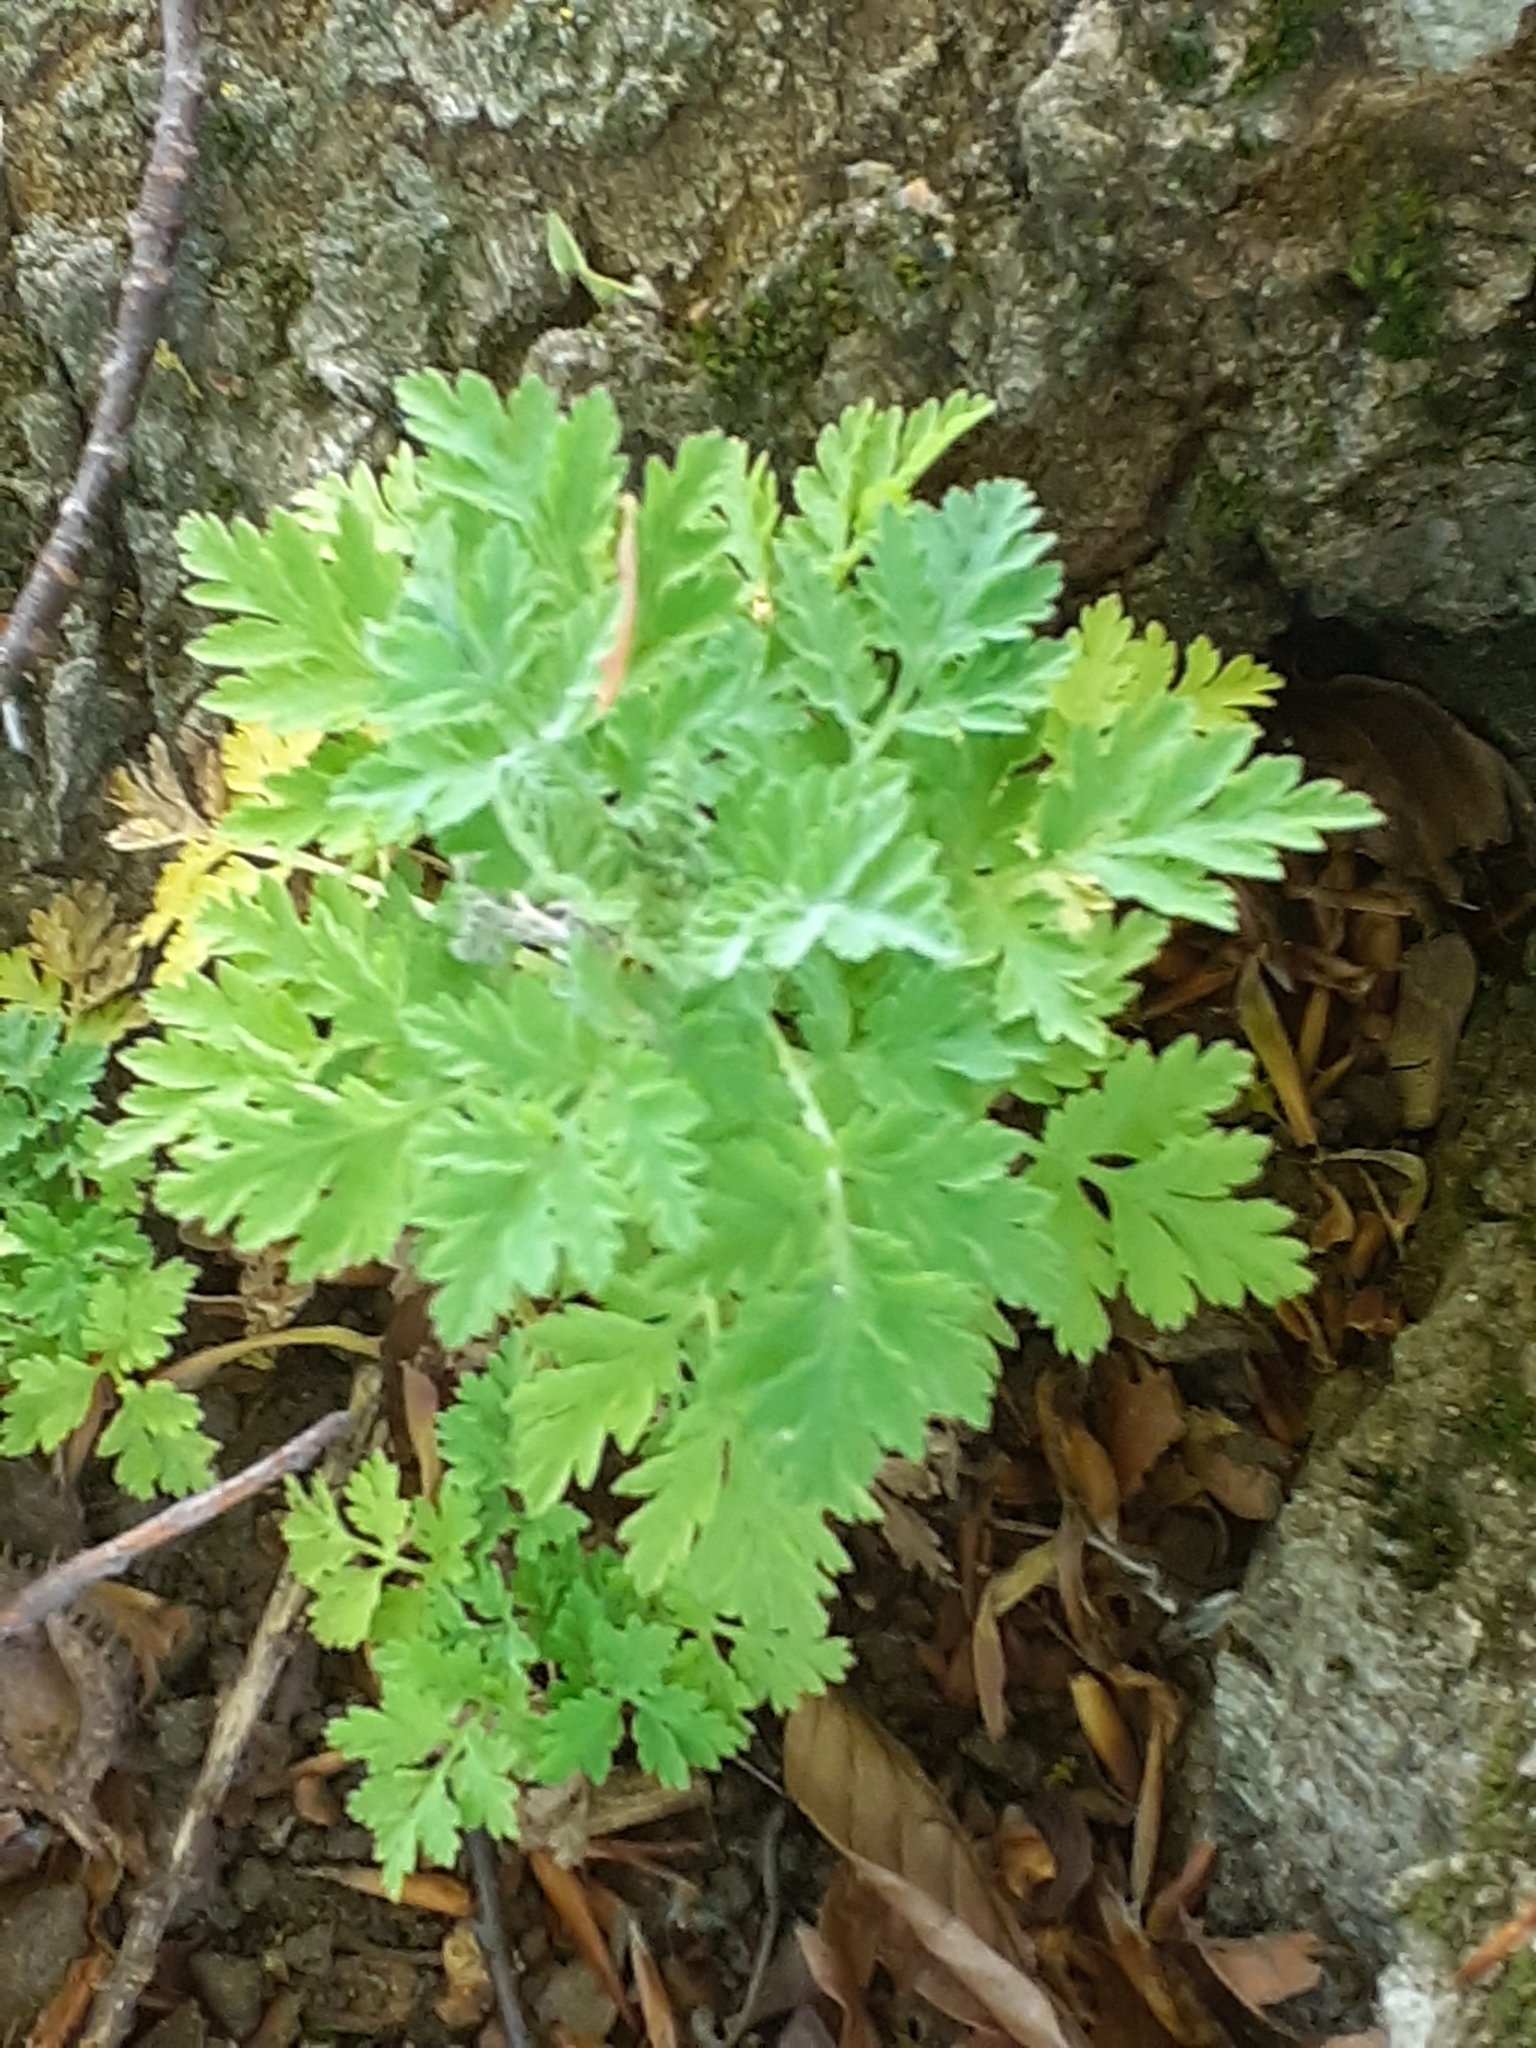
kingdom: Plantae
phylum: Tracheophyta
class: Magnoliopsida
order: Asterales
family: Asteraceae
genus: Tanacetum
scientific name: Tanacetum parthenium
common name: Feverfew
